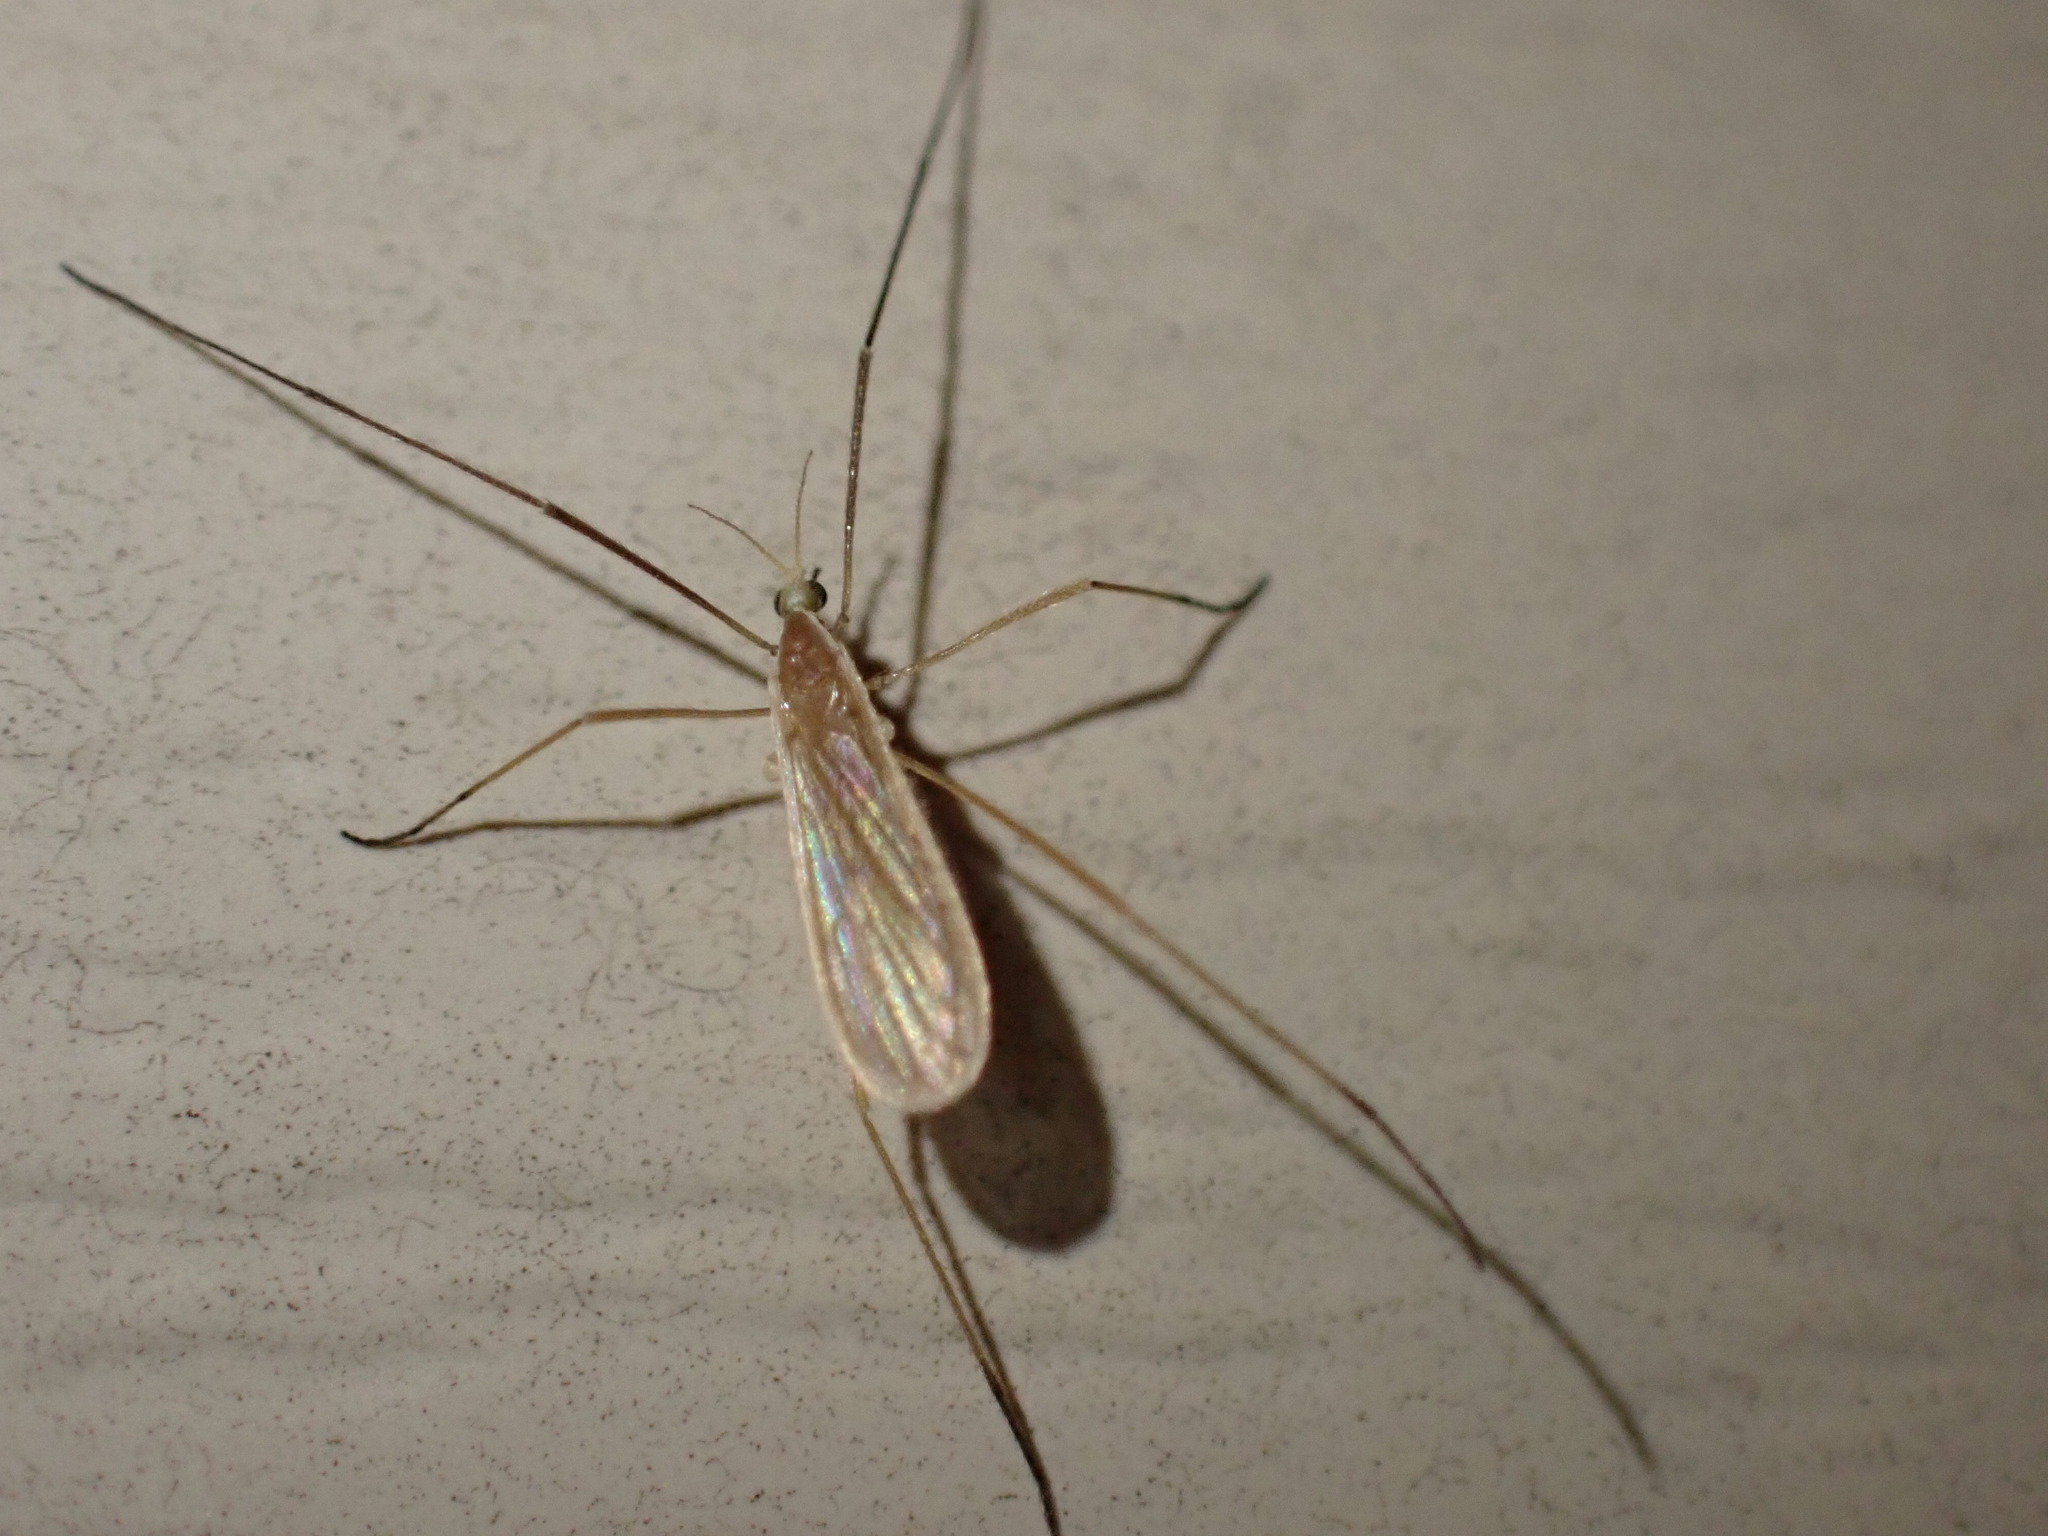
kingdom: Animalia
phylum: Arthropoda
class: Insecta
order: Diptera
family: Limoniidae
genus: Molophilus
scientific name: Molophilus
